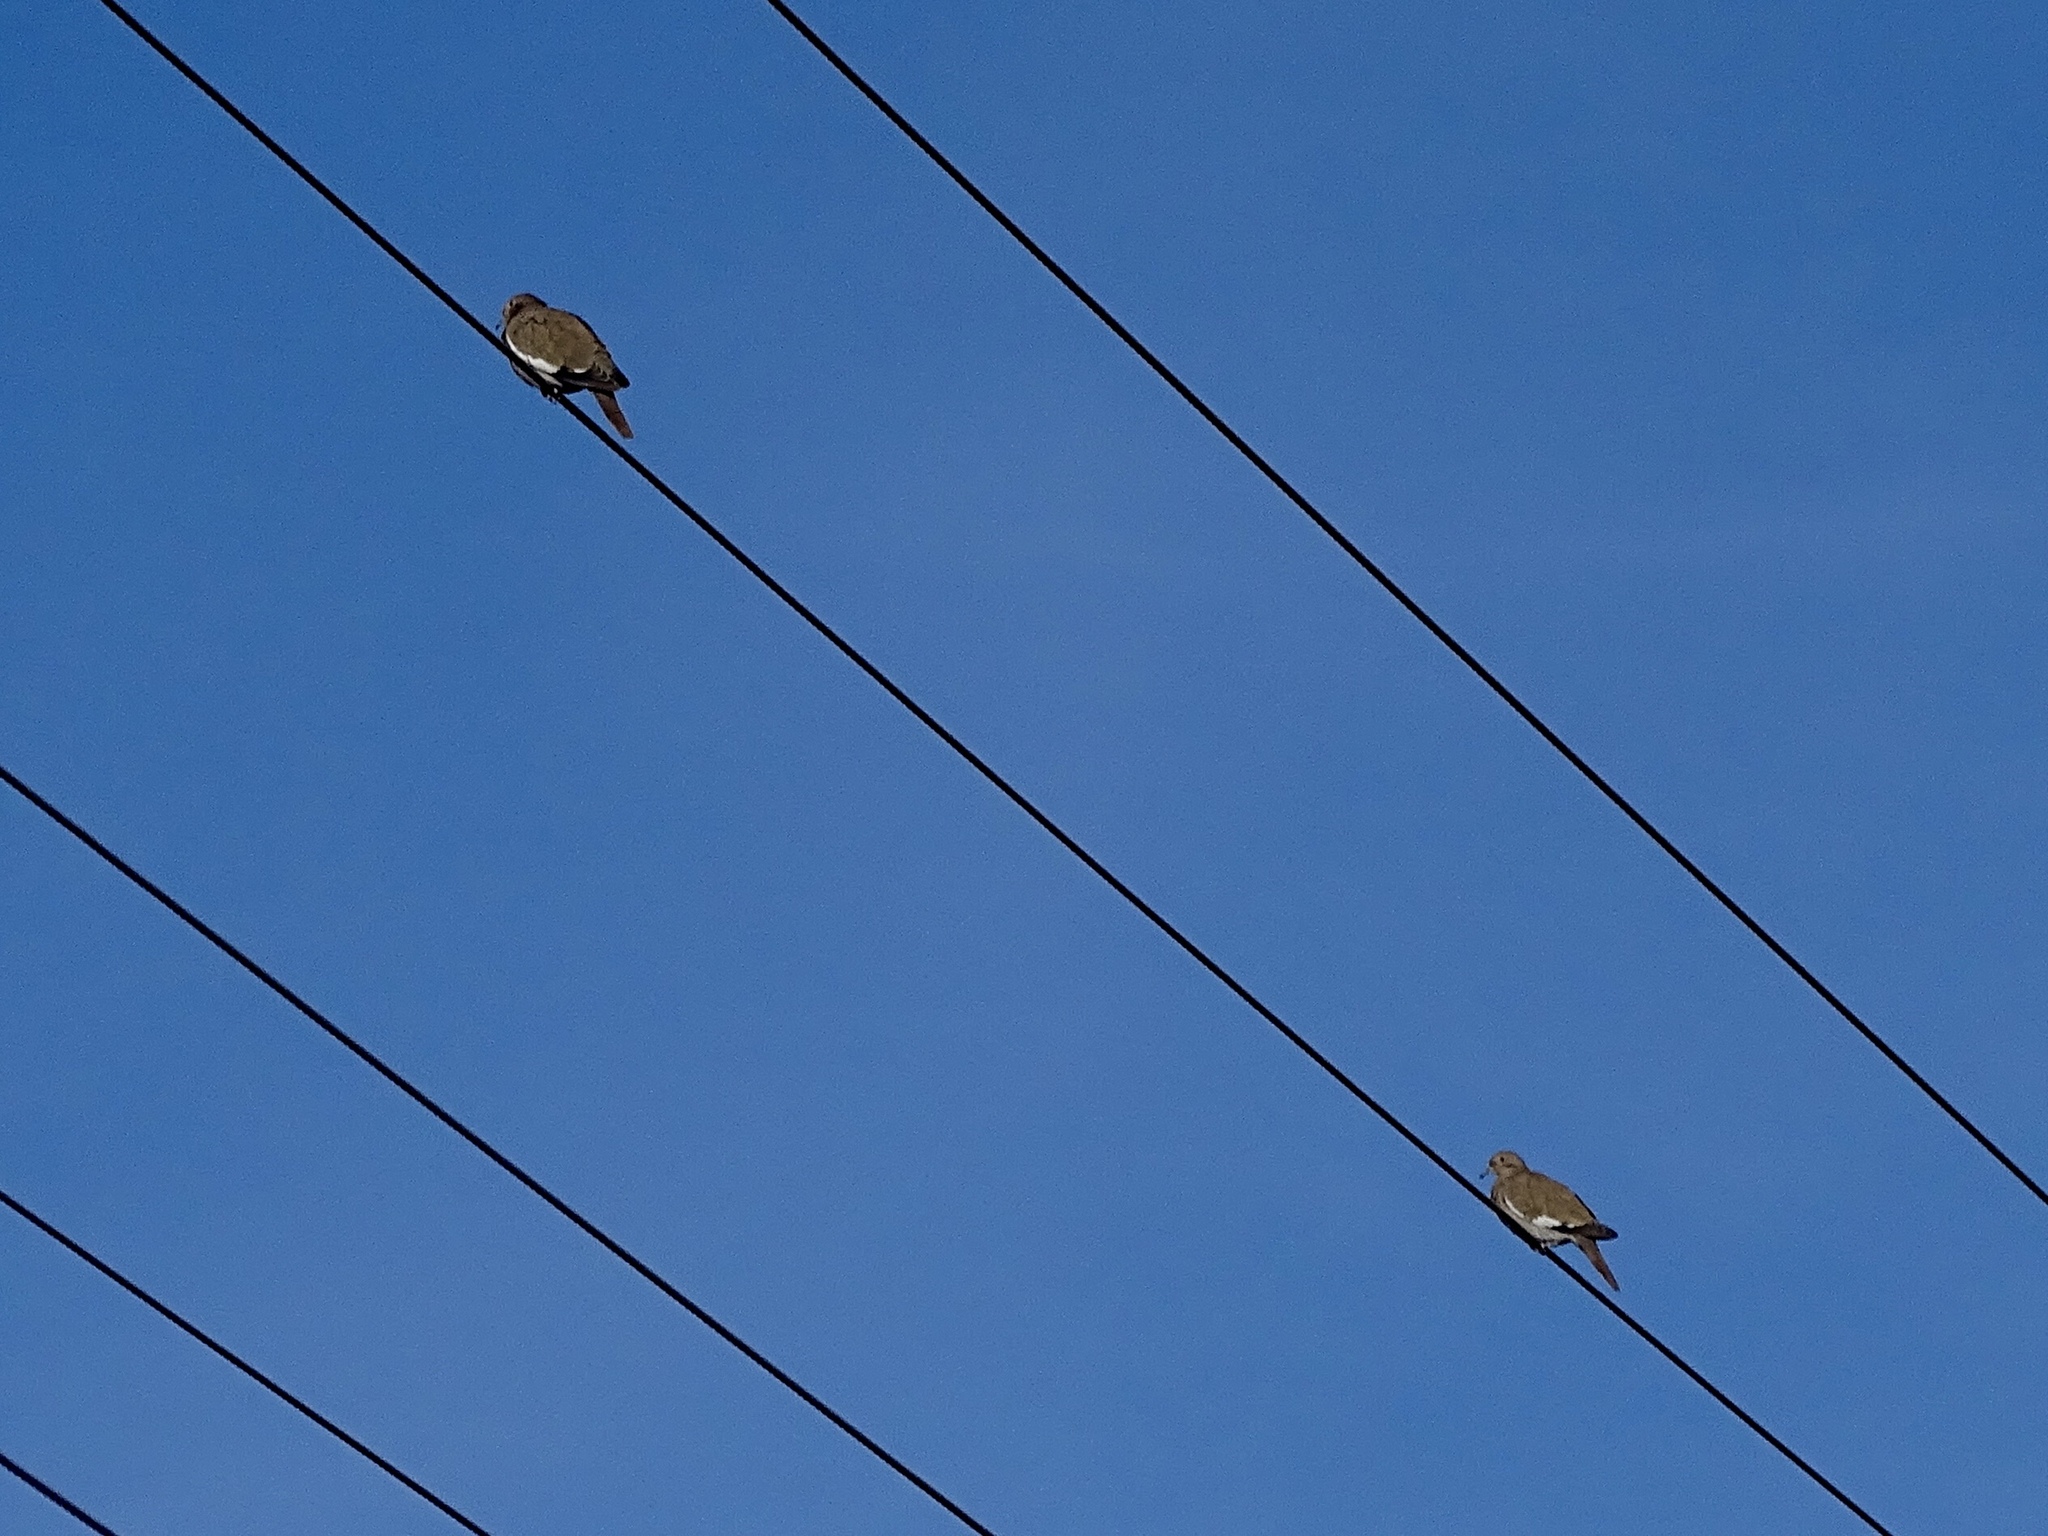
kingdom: Animalia
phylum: Chordata
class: Aves
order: Columbiformes
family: Columbidae
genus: Zenaida
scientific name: Zenaida asiatica
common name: White-winged dove
